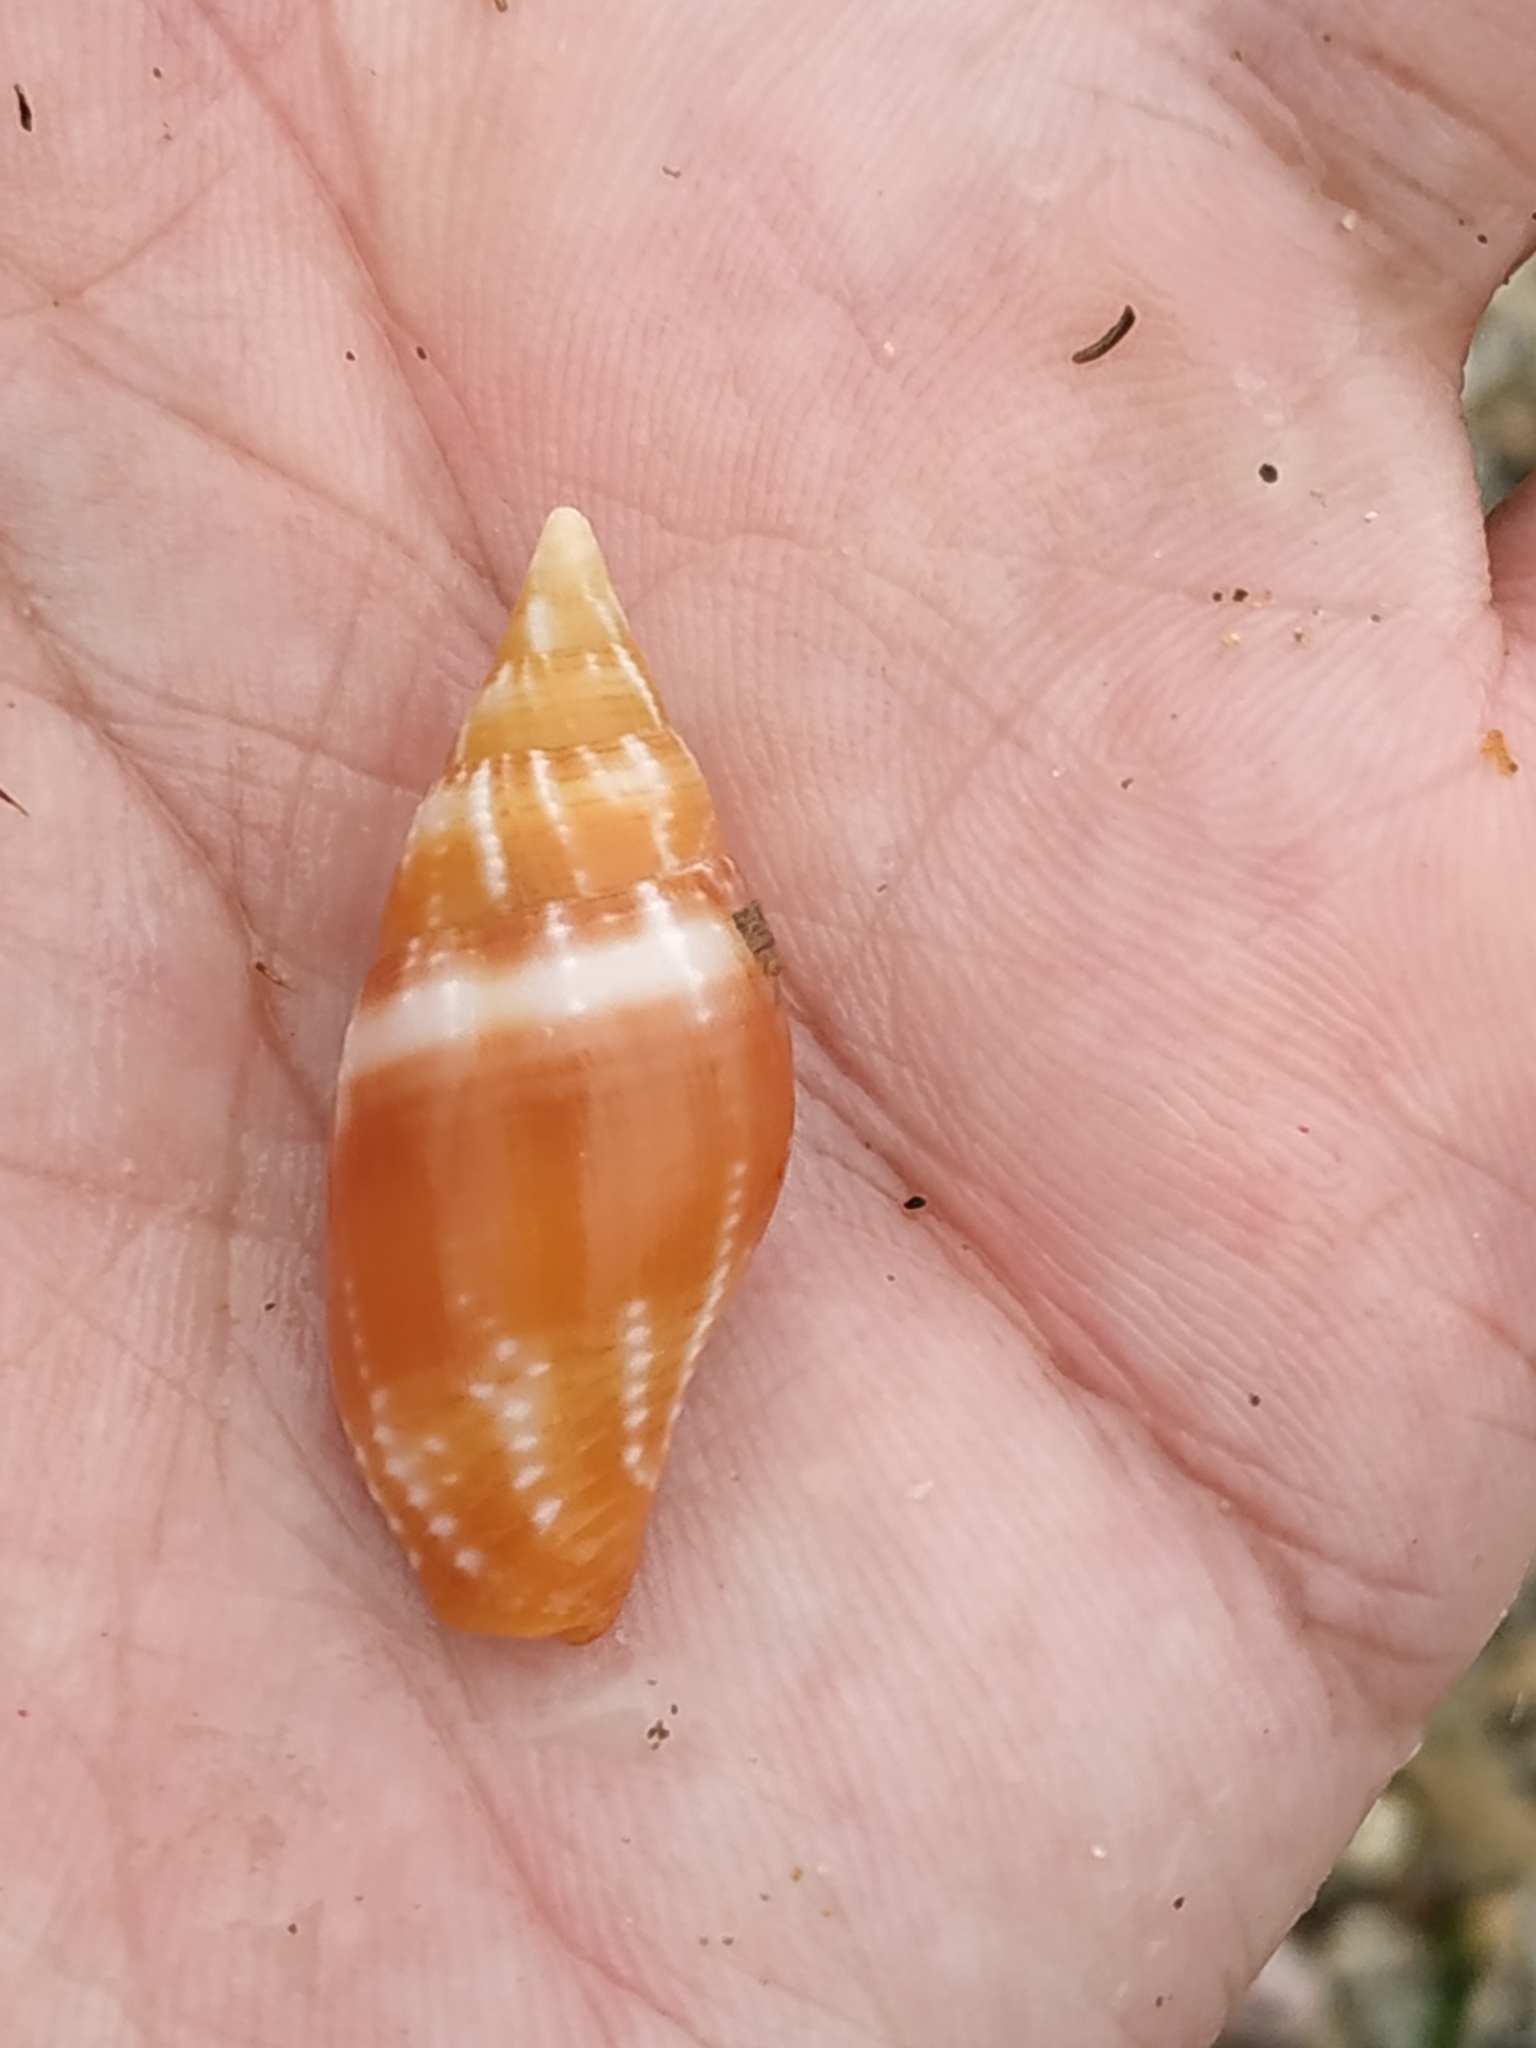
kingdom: Animalia
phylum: Mollusca
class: Gastropoda
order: Neogastropoda
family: Mitridae
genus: Strigatella
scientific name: Strigatella scutulata
